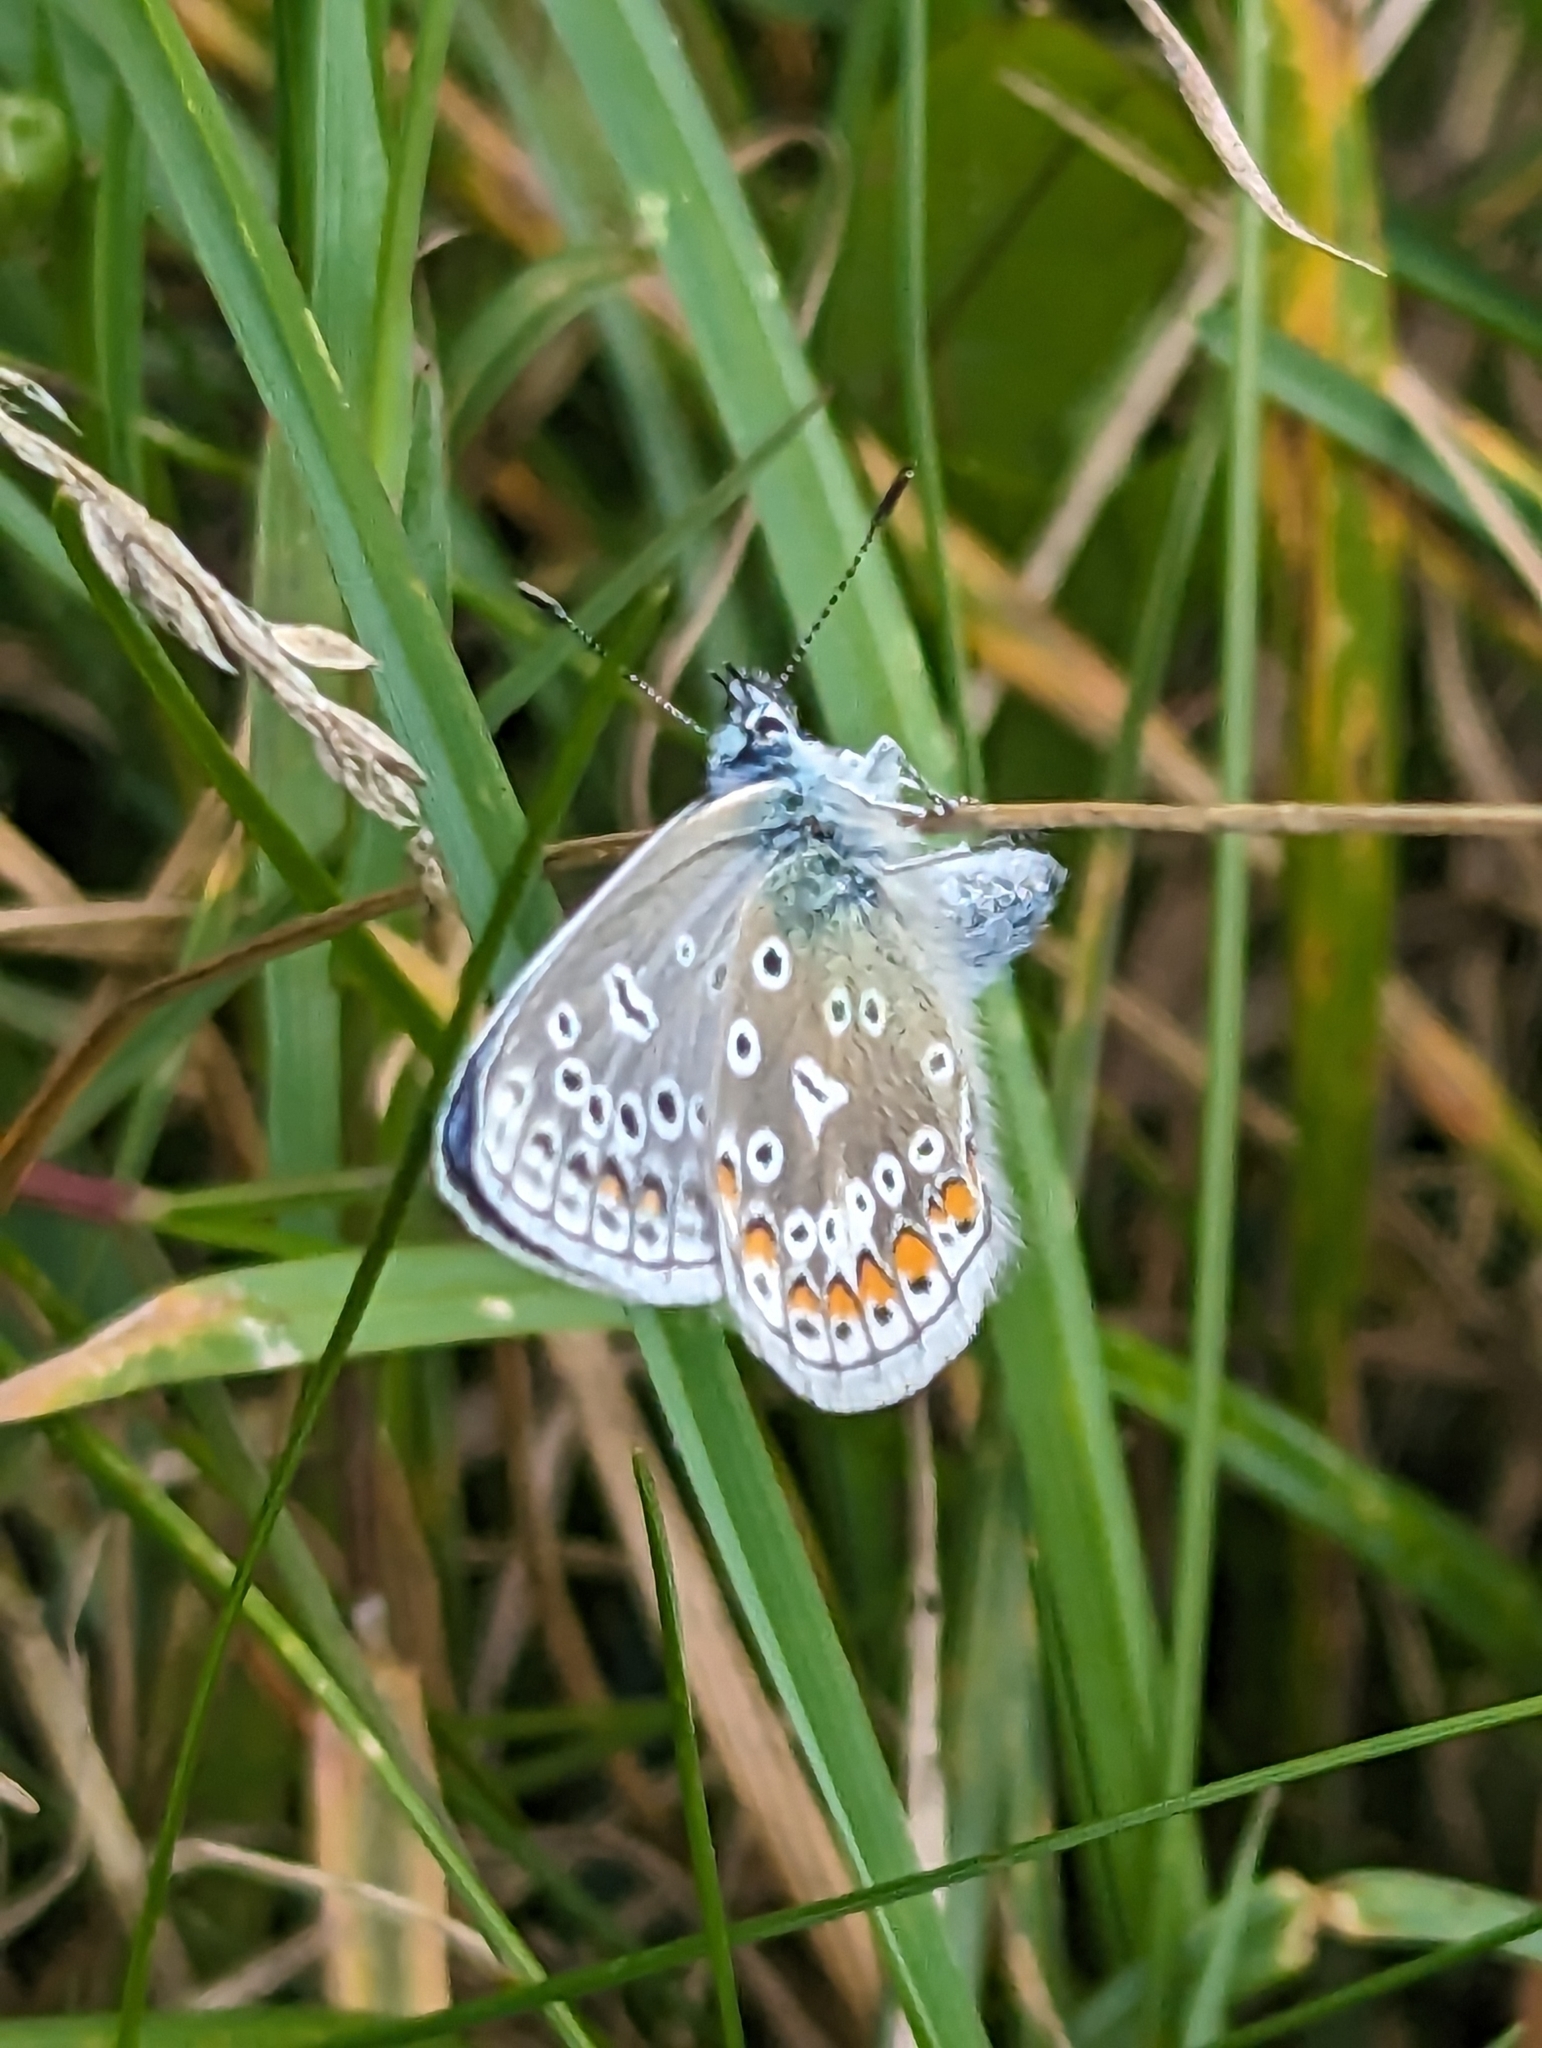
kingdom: Animalia
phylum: Arthropoda
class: Insecta
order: Lepidoptera
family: Lycaenidae
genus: Polyommatus
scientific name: Polyommatus icarus
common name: Common blue
